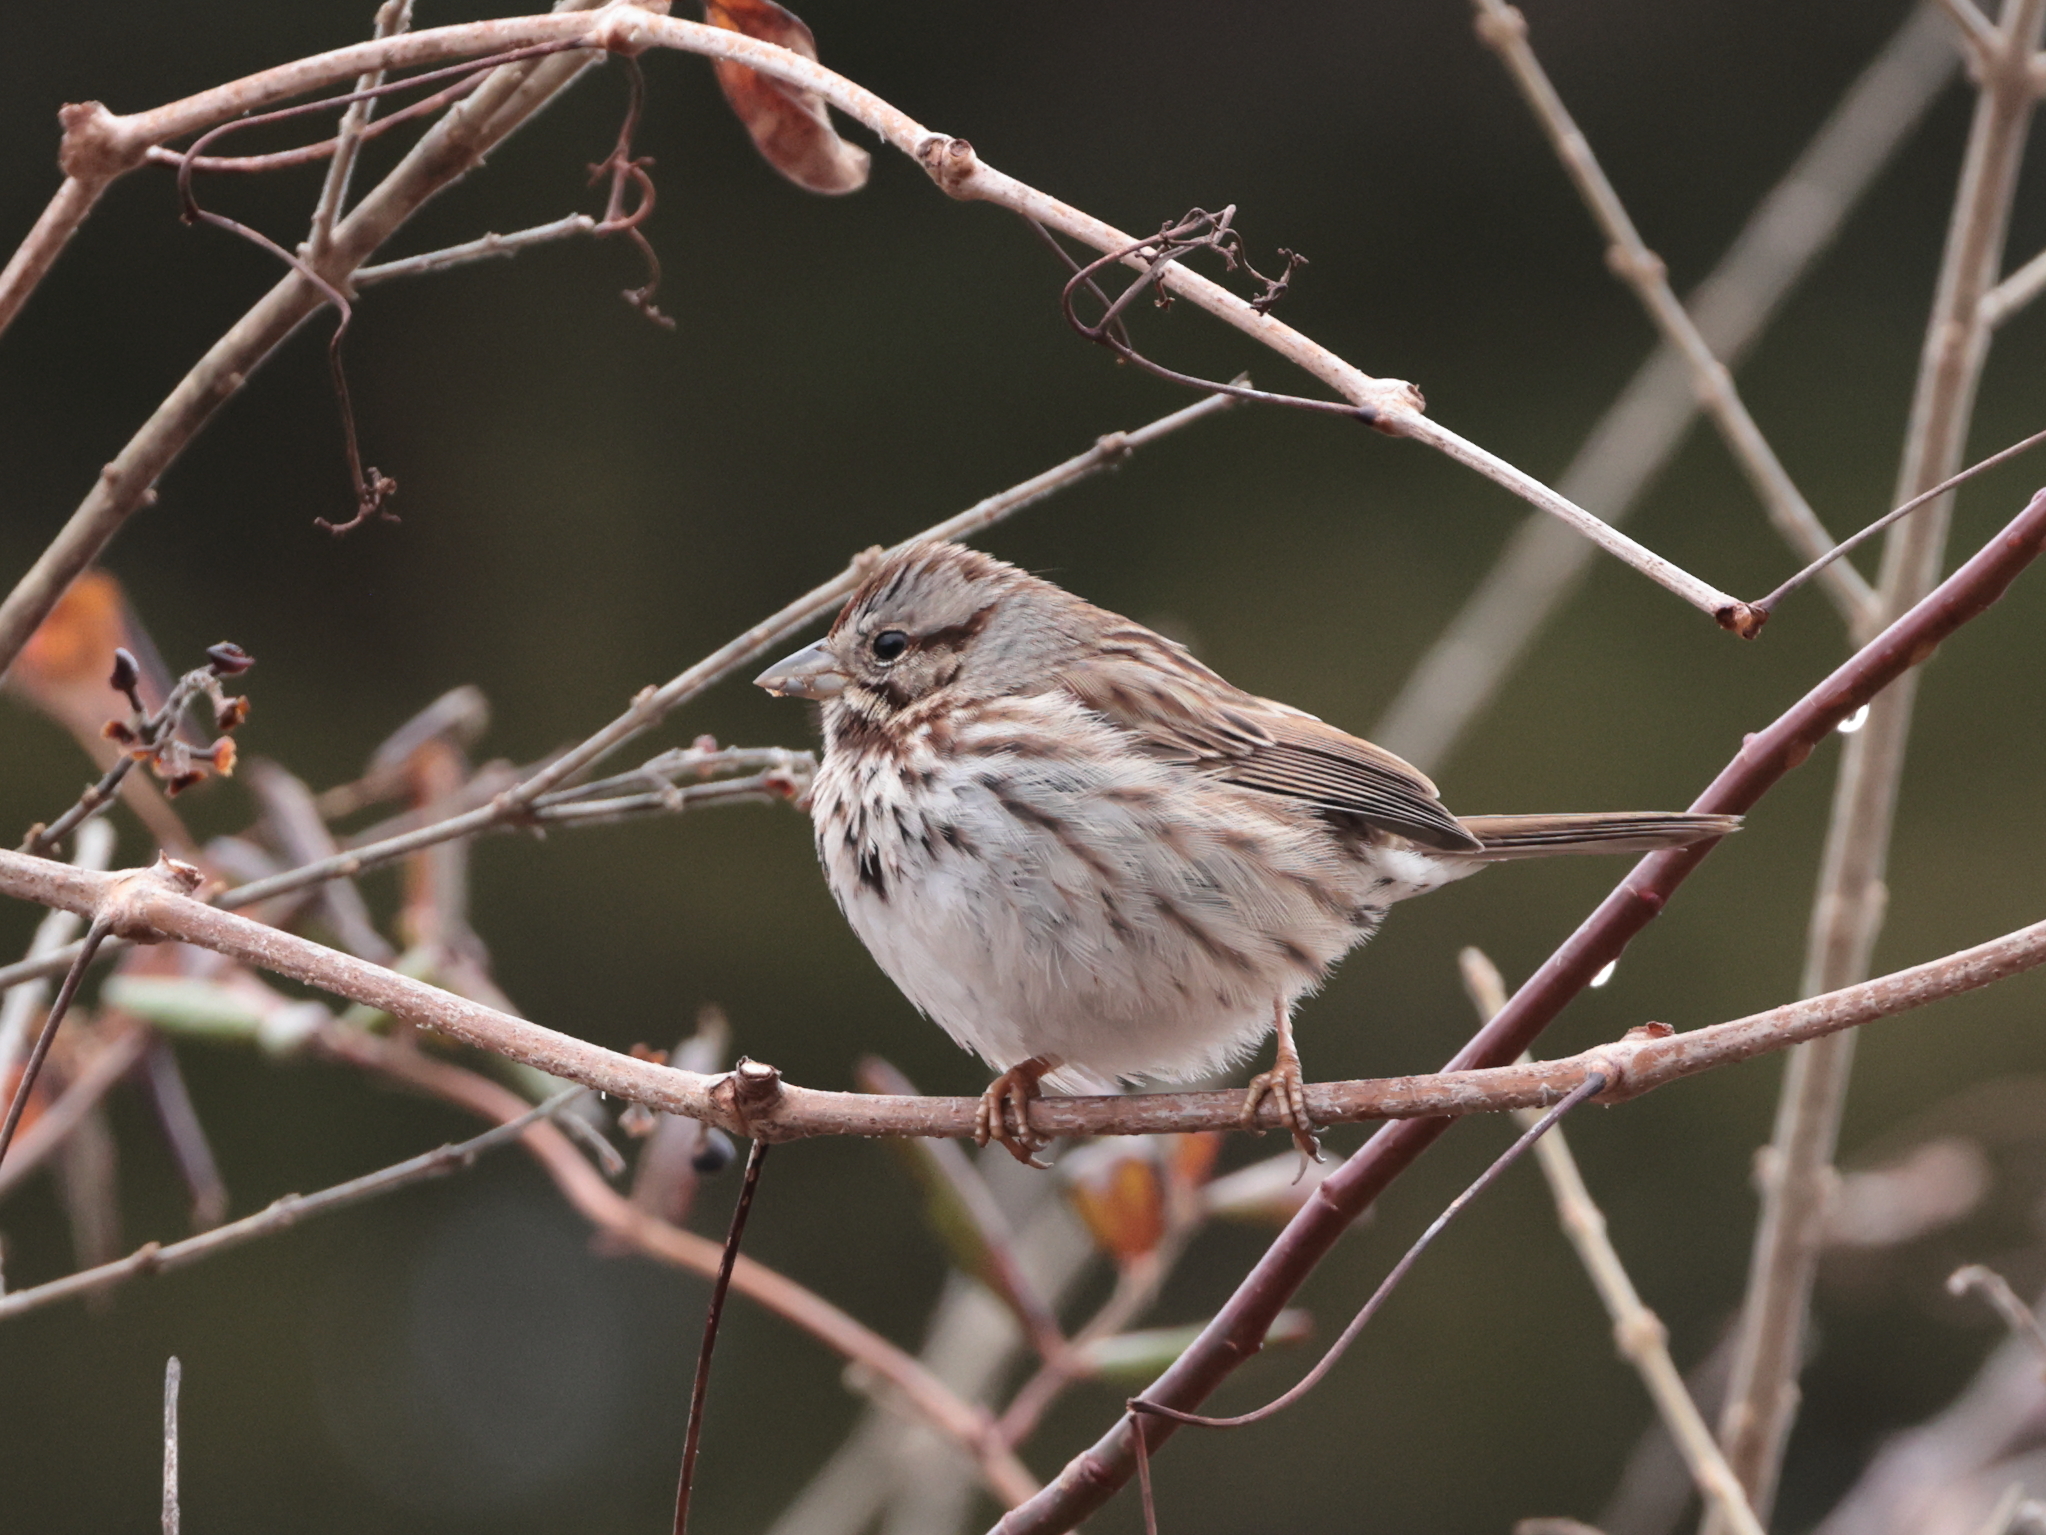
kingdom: Animalia
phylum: Chordata
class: Aves
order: Passeriformes
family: Passerellidae
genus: Melospiza
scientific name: Melospiza melodia
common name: Song sparrow
